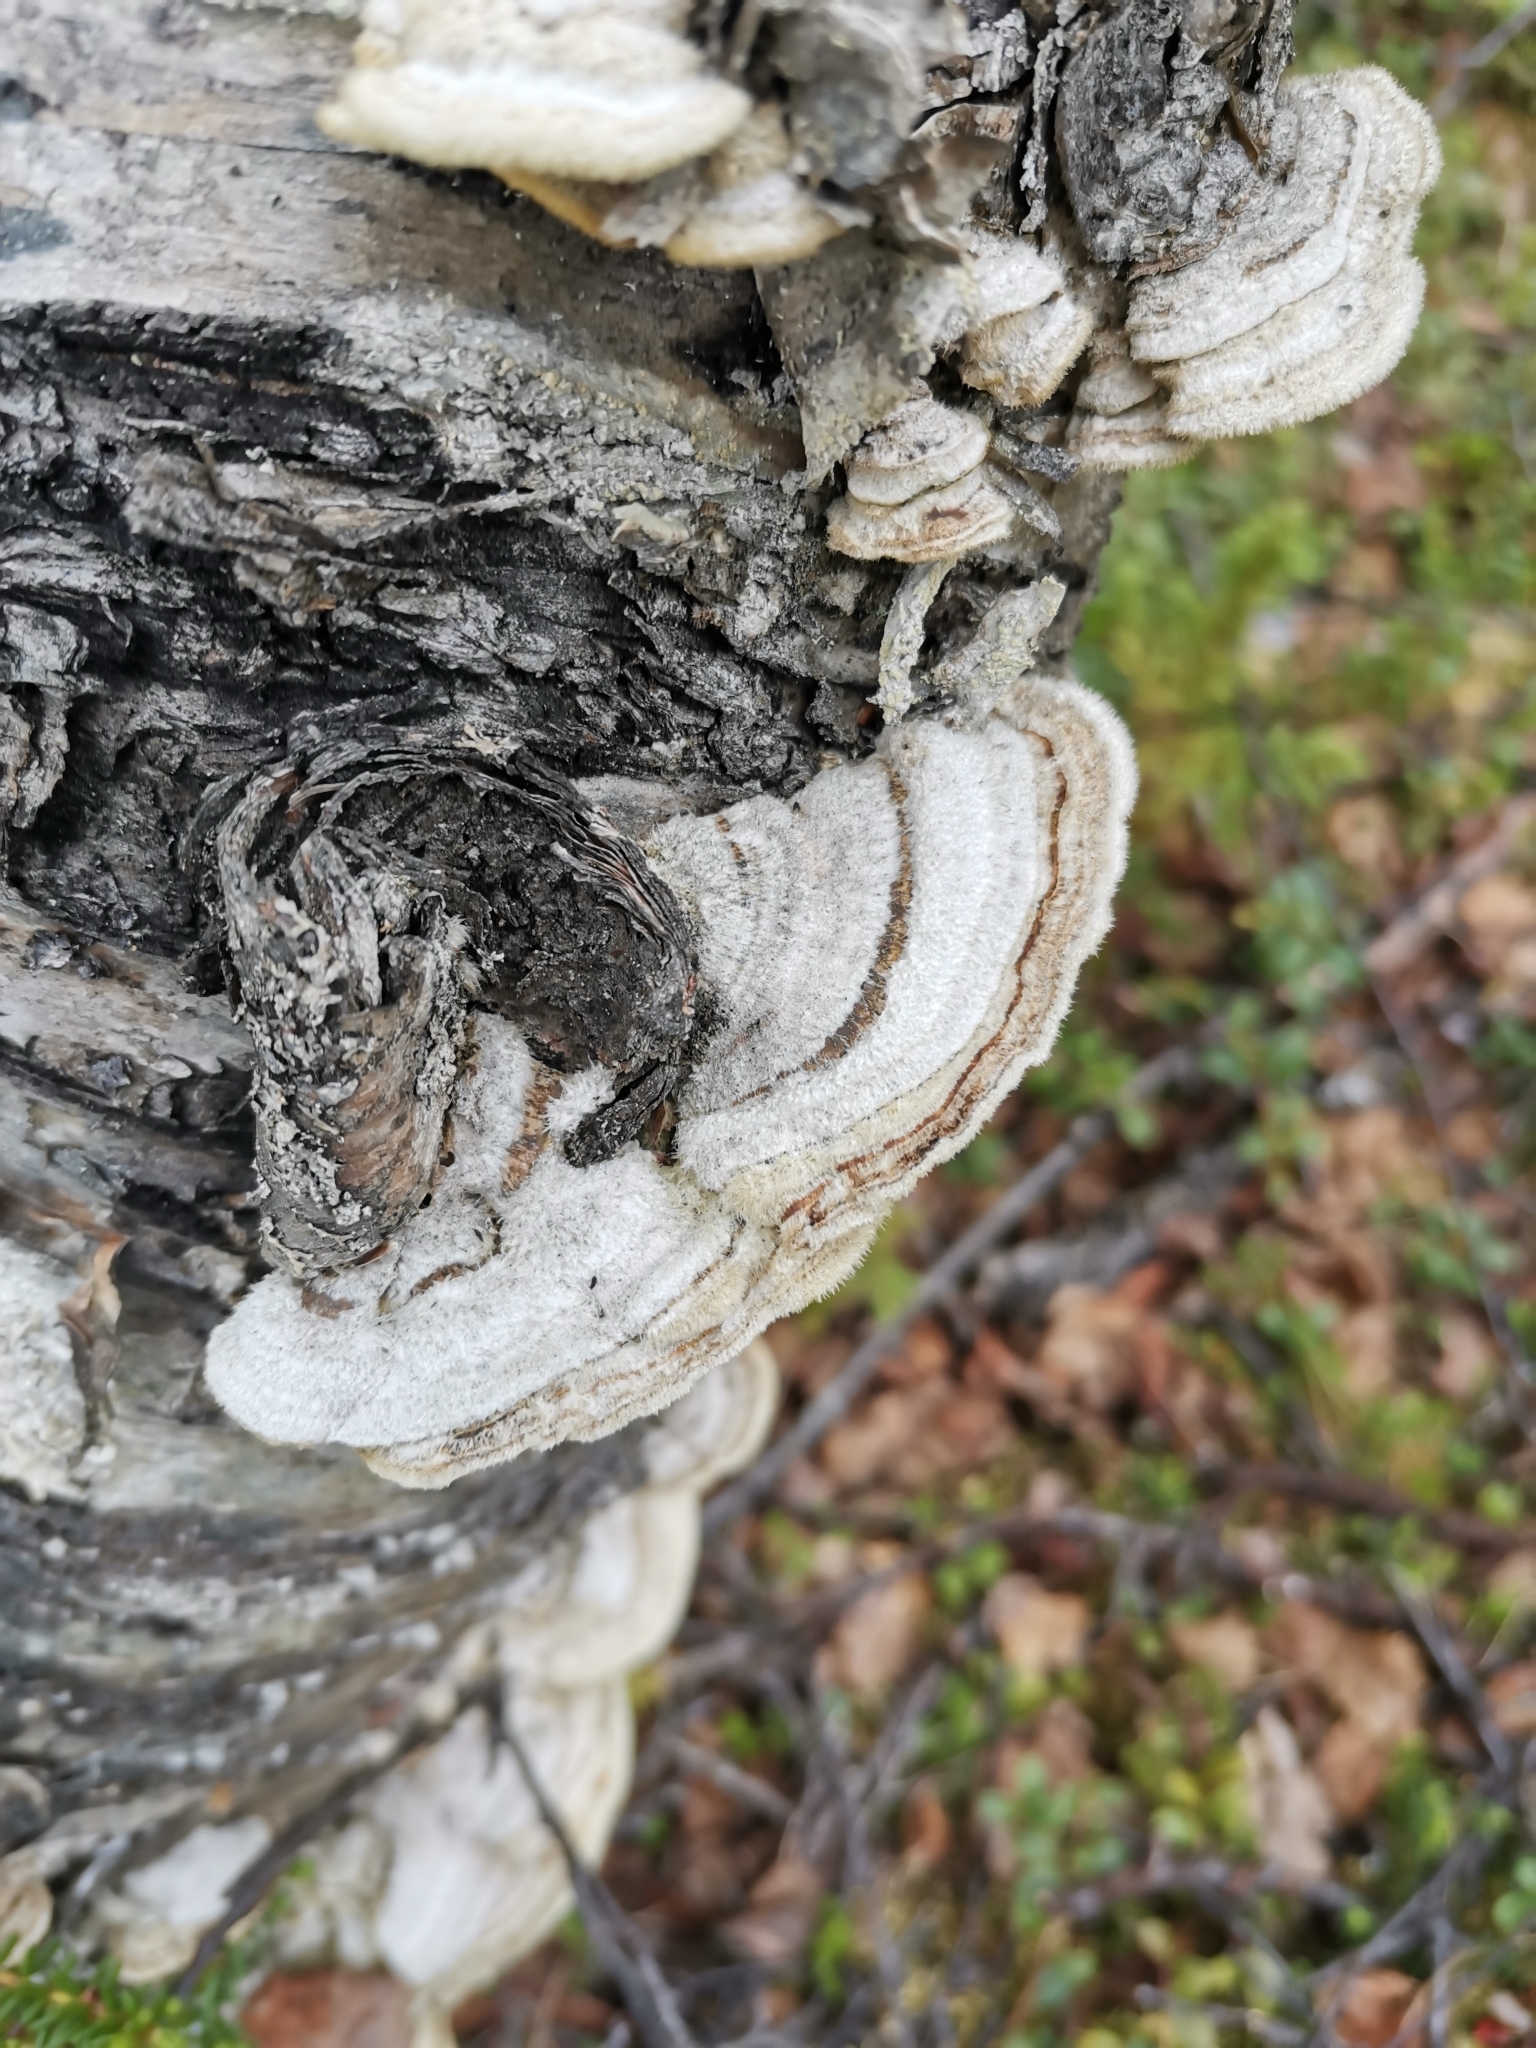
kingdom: Fungi
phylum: Basidiomycota
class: Agaricomycetes
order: Polyporales
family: Cerrenaceae
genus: Cerrena
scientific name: Cerrena unicolor
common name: Mossy maze polypore
